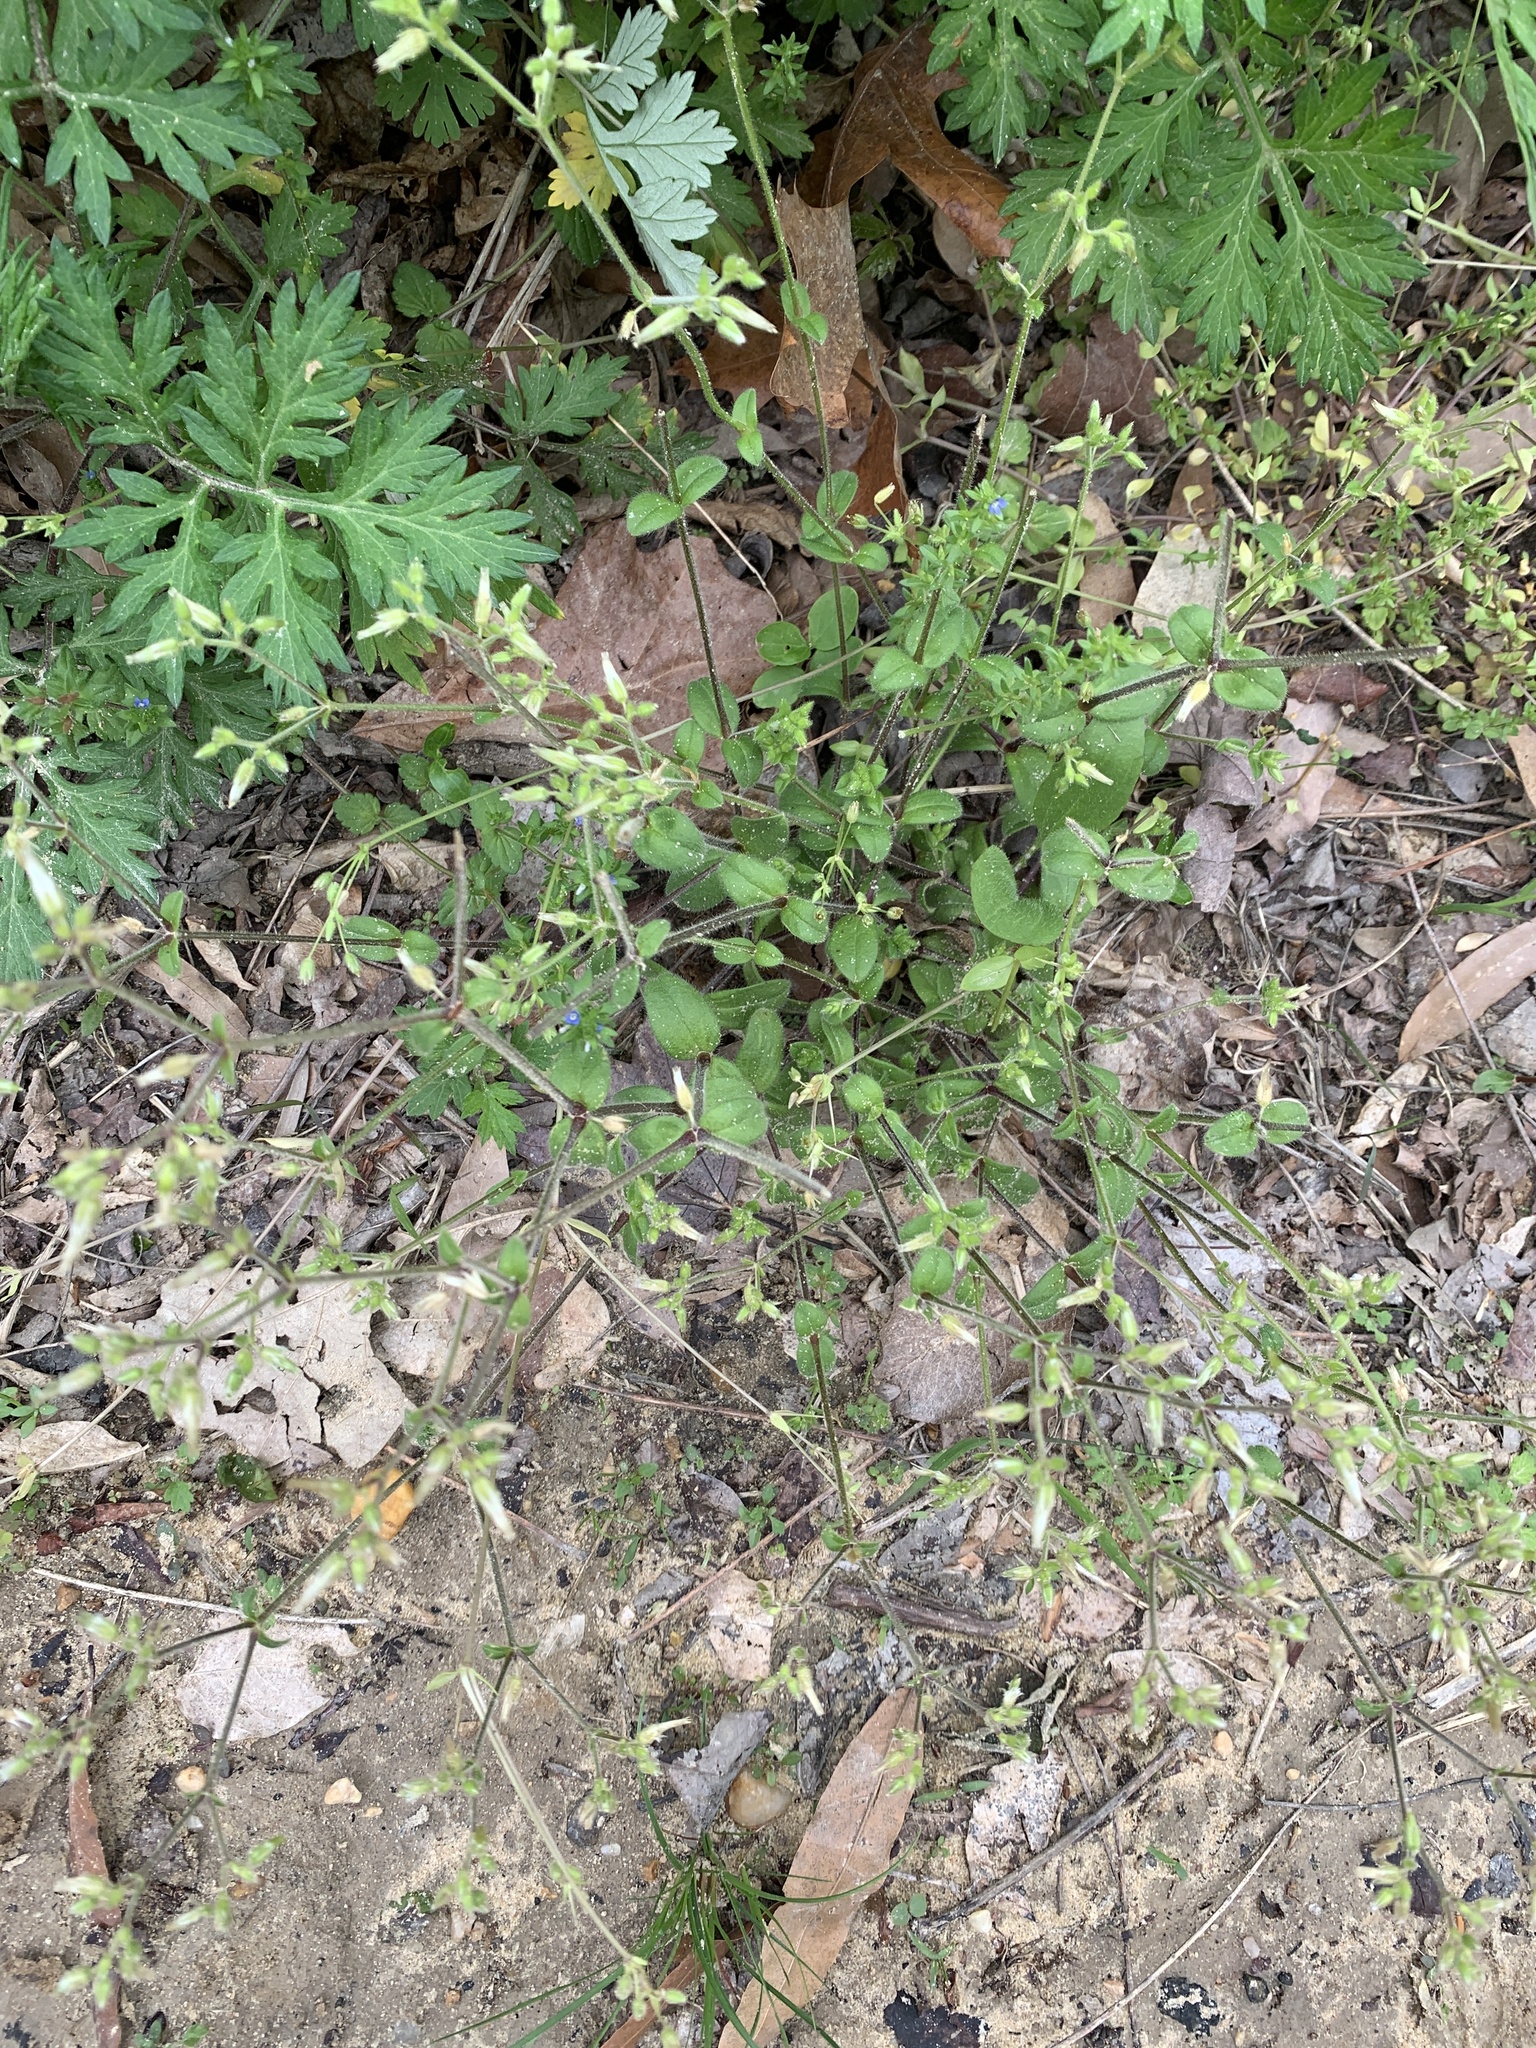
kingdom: Plantae
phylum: Tracheophyta
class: Magnoliopsida
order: Caryophyllales
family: Caryophyllaceae
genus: Cerastium
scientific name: Cerastium glomeratum
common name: Sticky chickweed
